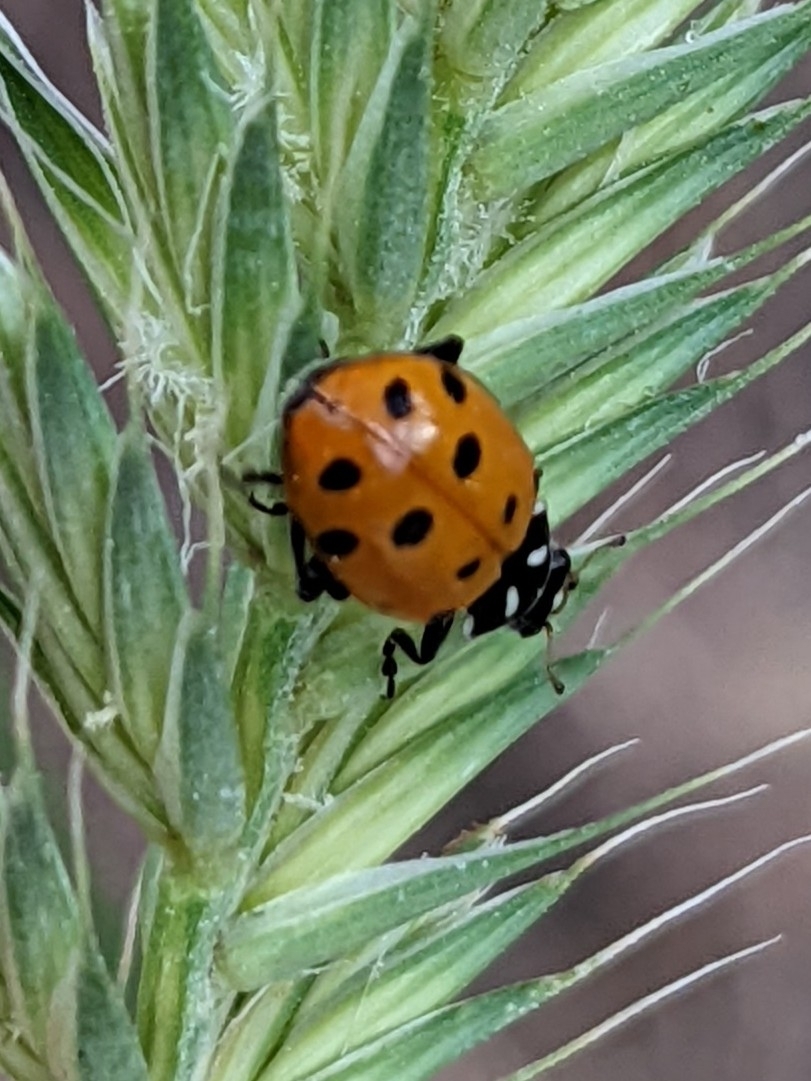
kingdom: Animalia
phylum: Arthropoda
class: Insecta
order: Coleoptera
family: Coccinellidae
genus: Hippodamia
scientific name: Hippodamia convergens
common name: Convergent lady beetle
